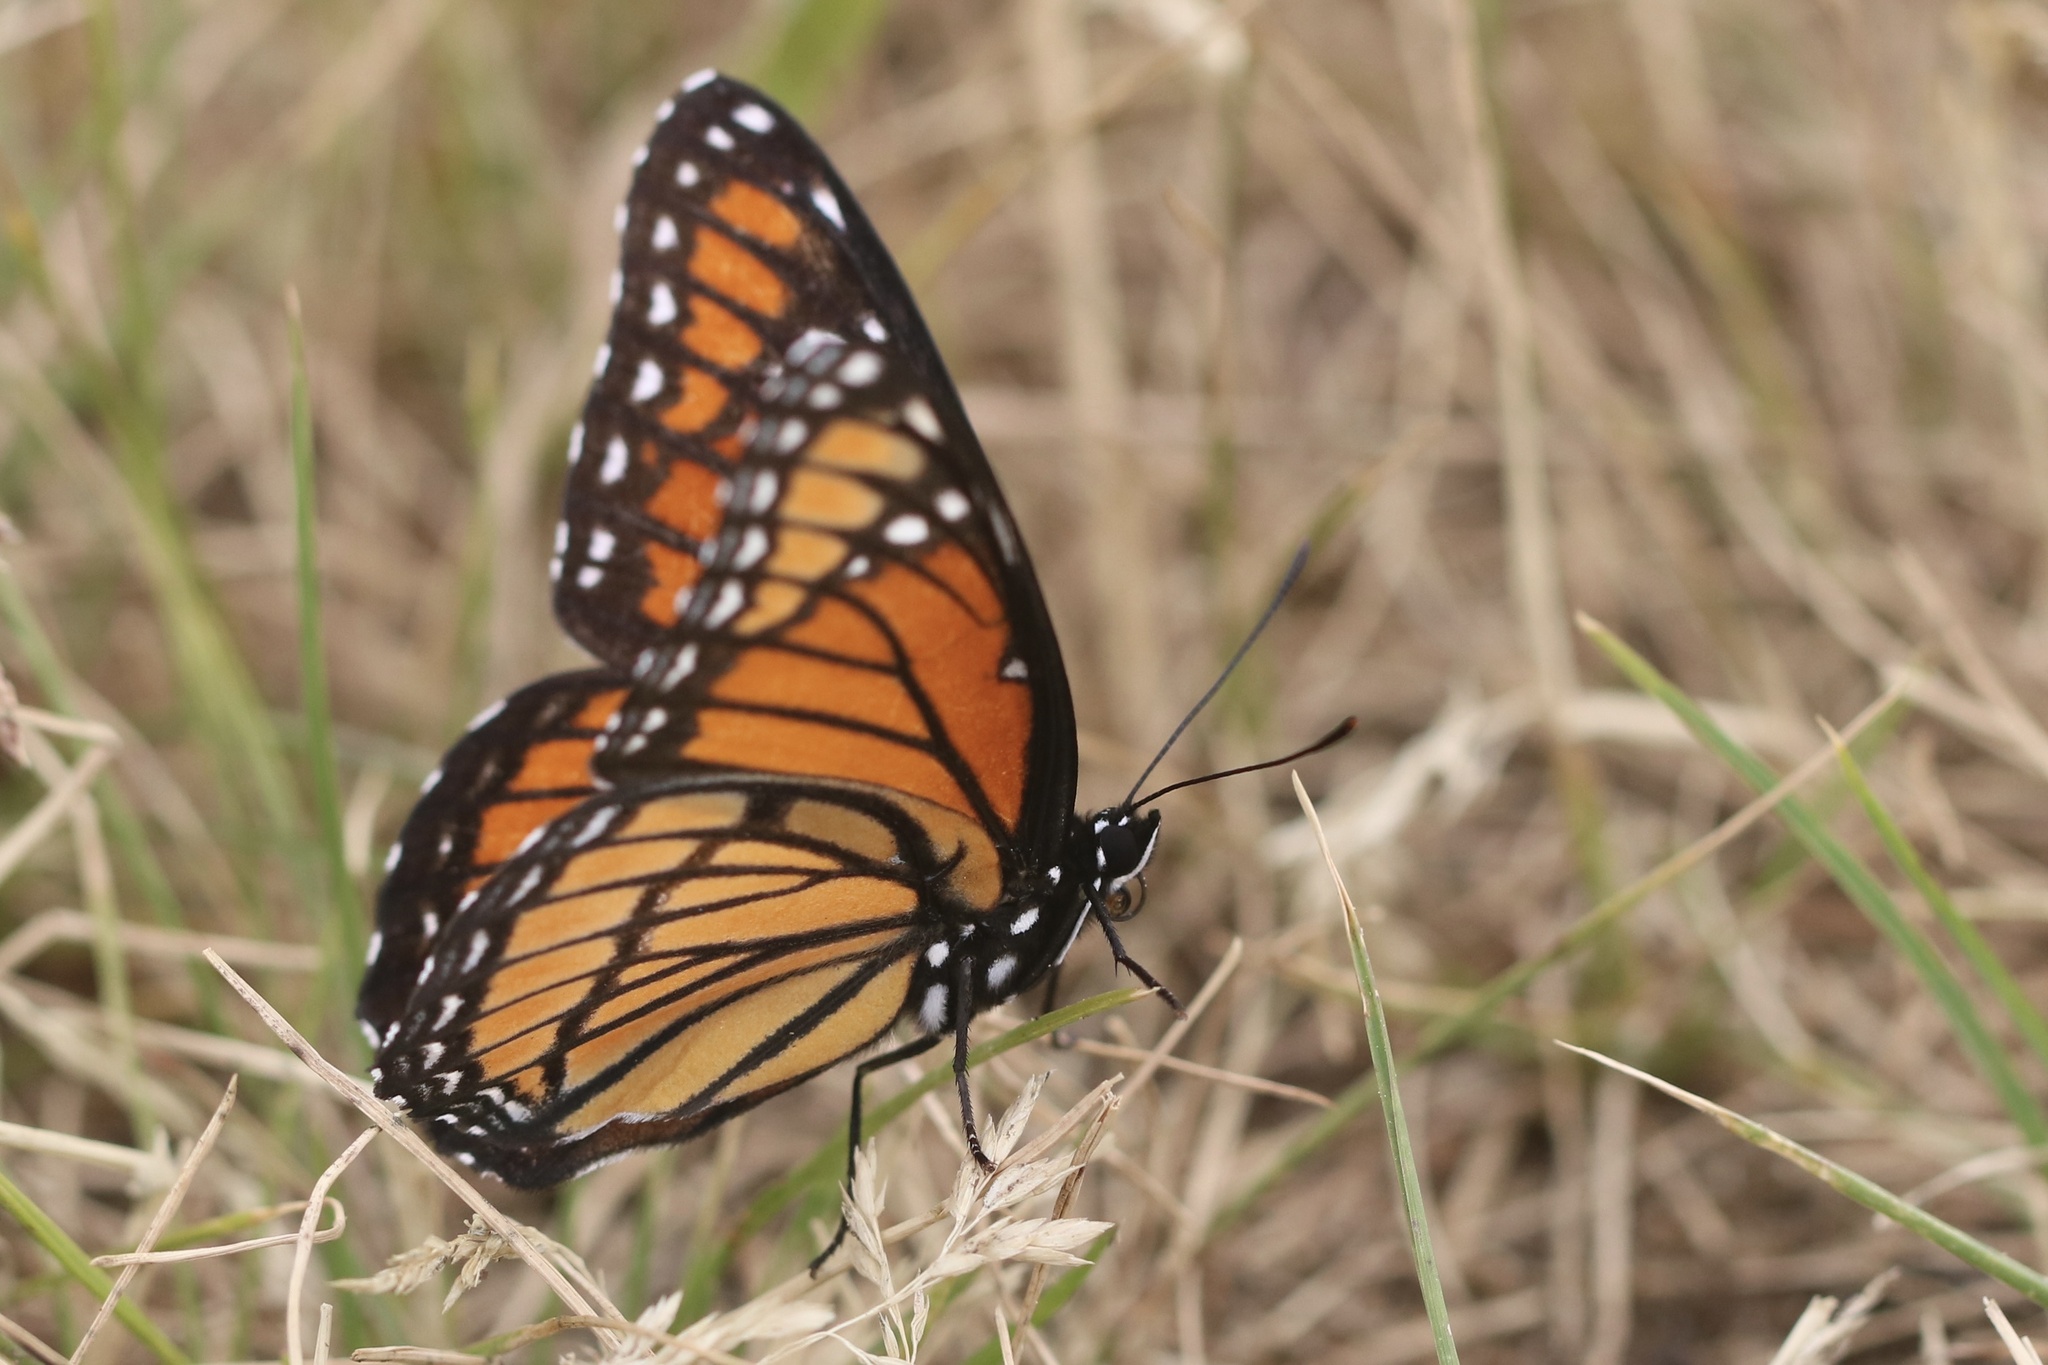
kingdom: Animalia
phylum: Arthropoda
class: Insecta
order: Lepidoptera
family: Nymphalidae
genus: Limenitis
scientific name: Limenitis archippus
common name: Viceroy
